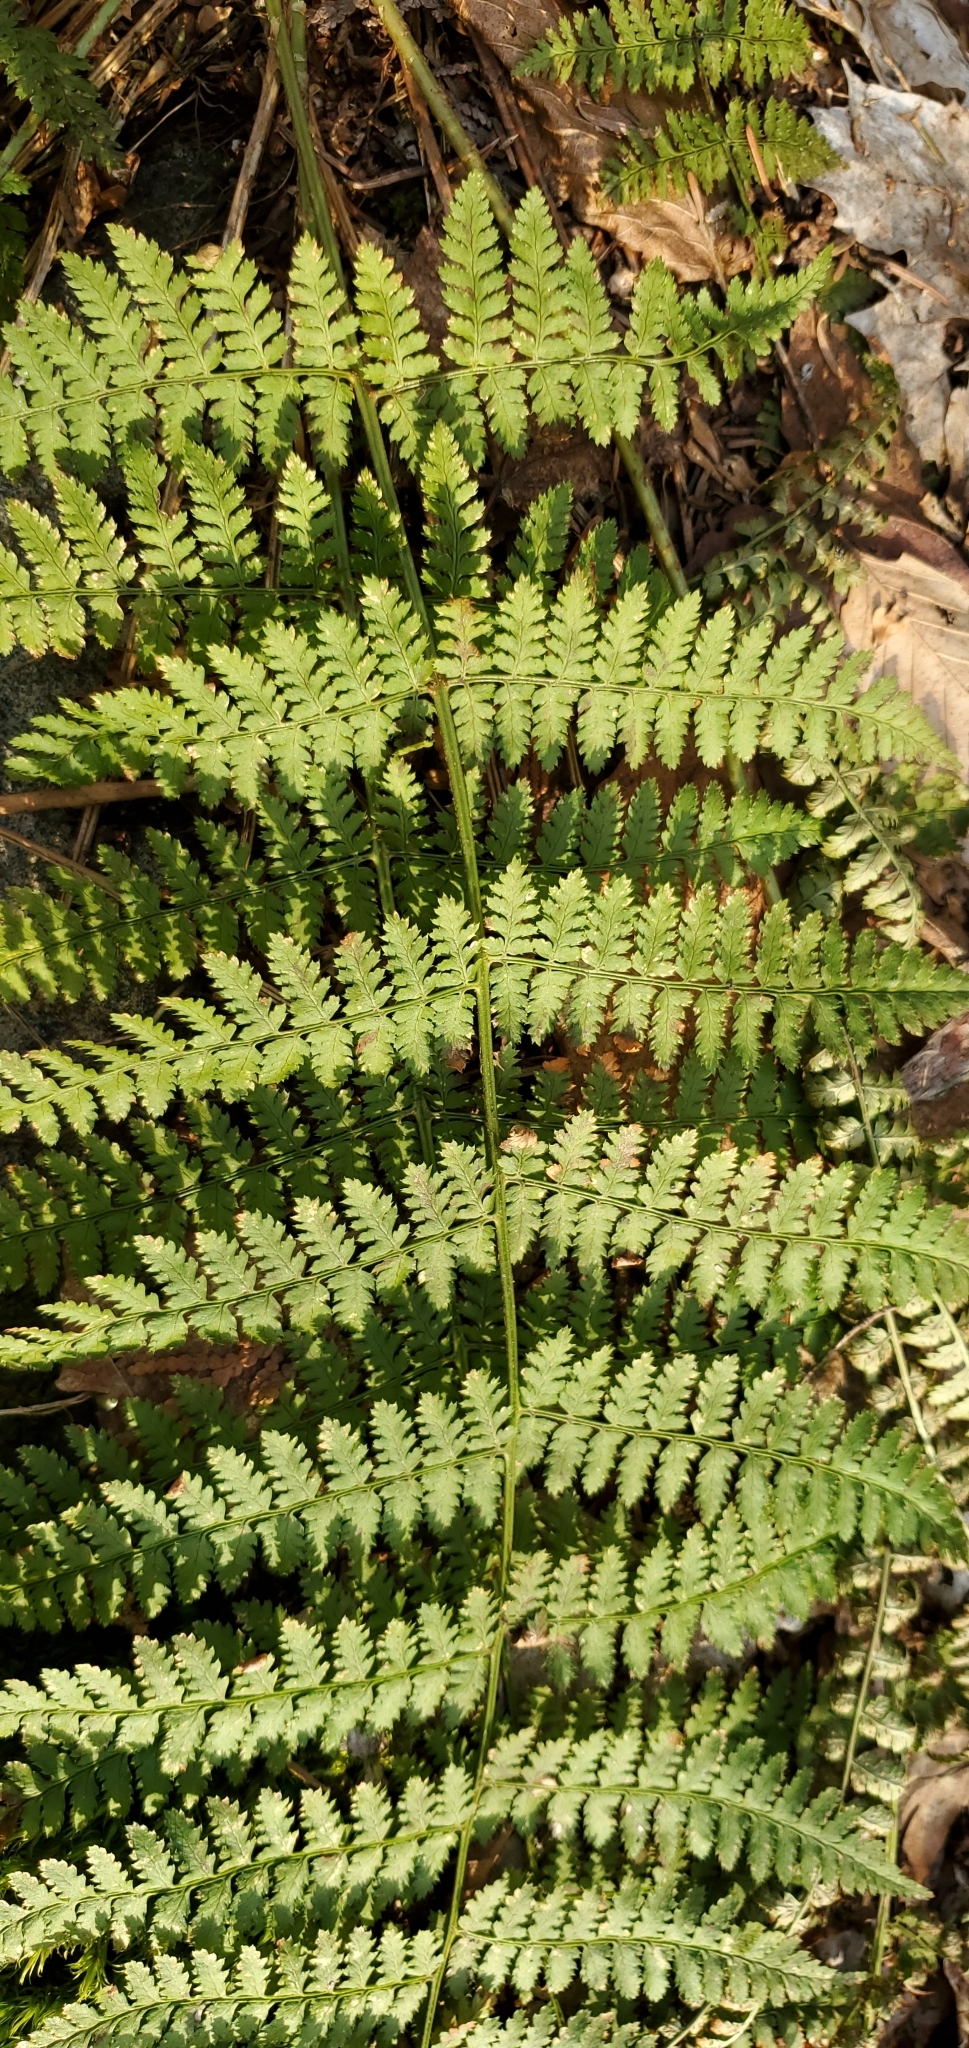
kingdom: Plantae
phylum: Tracheophyta
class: Polypodiopsida
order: Polypodiales
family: Dryopteridaceae
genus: Dryopteris
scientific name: Dryopteris intermedia
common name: Evergreen wood fern
